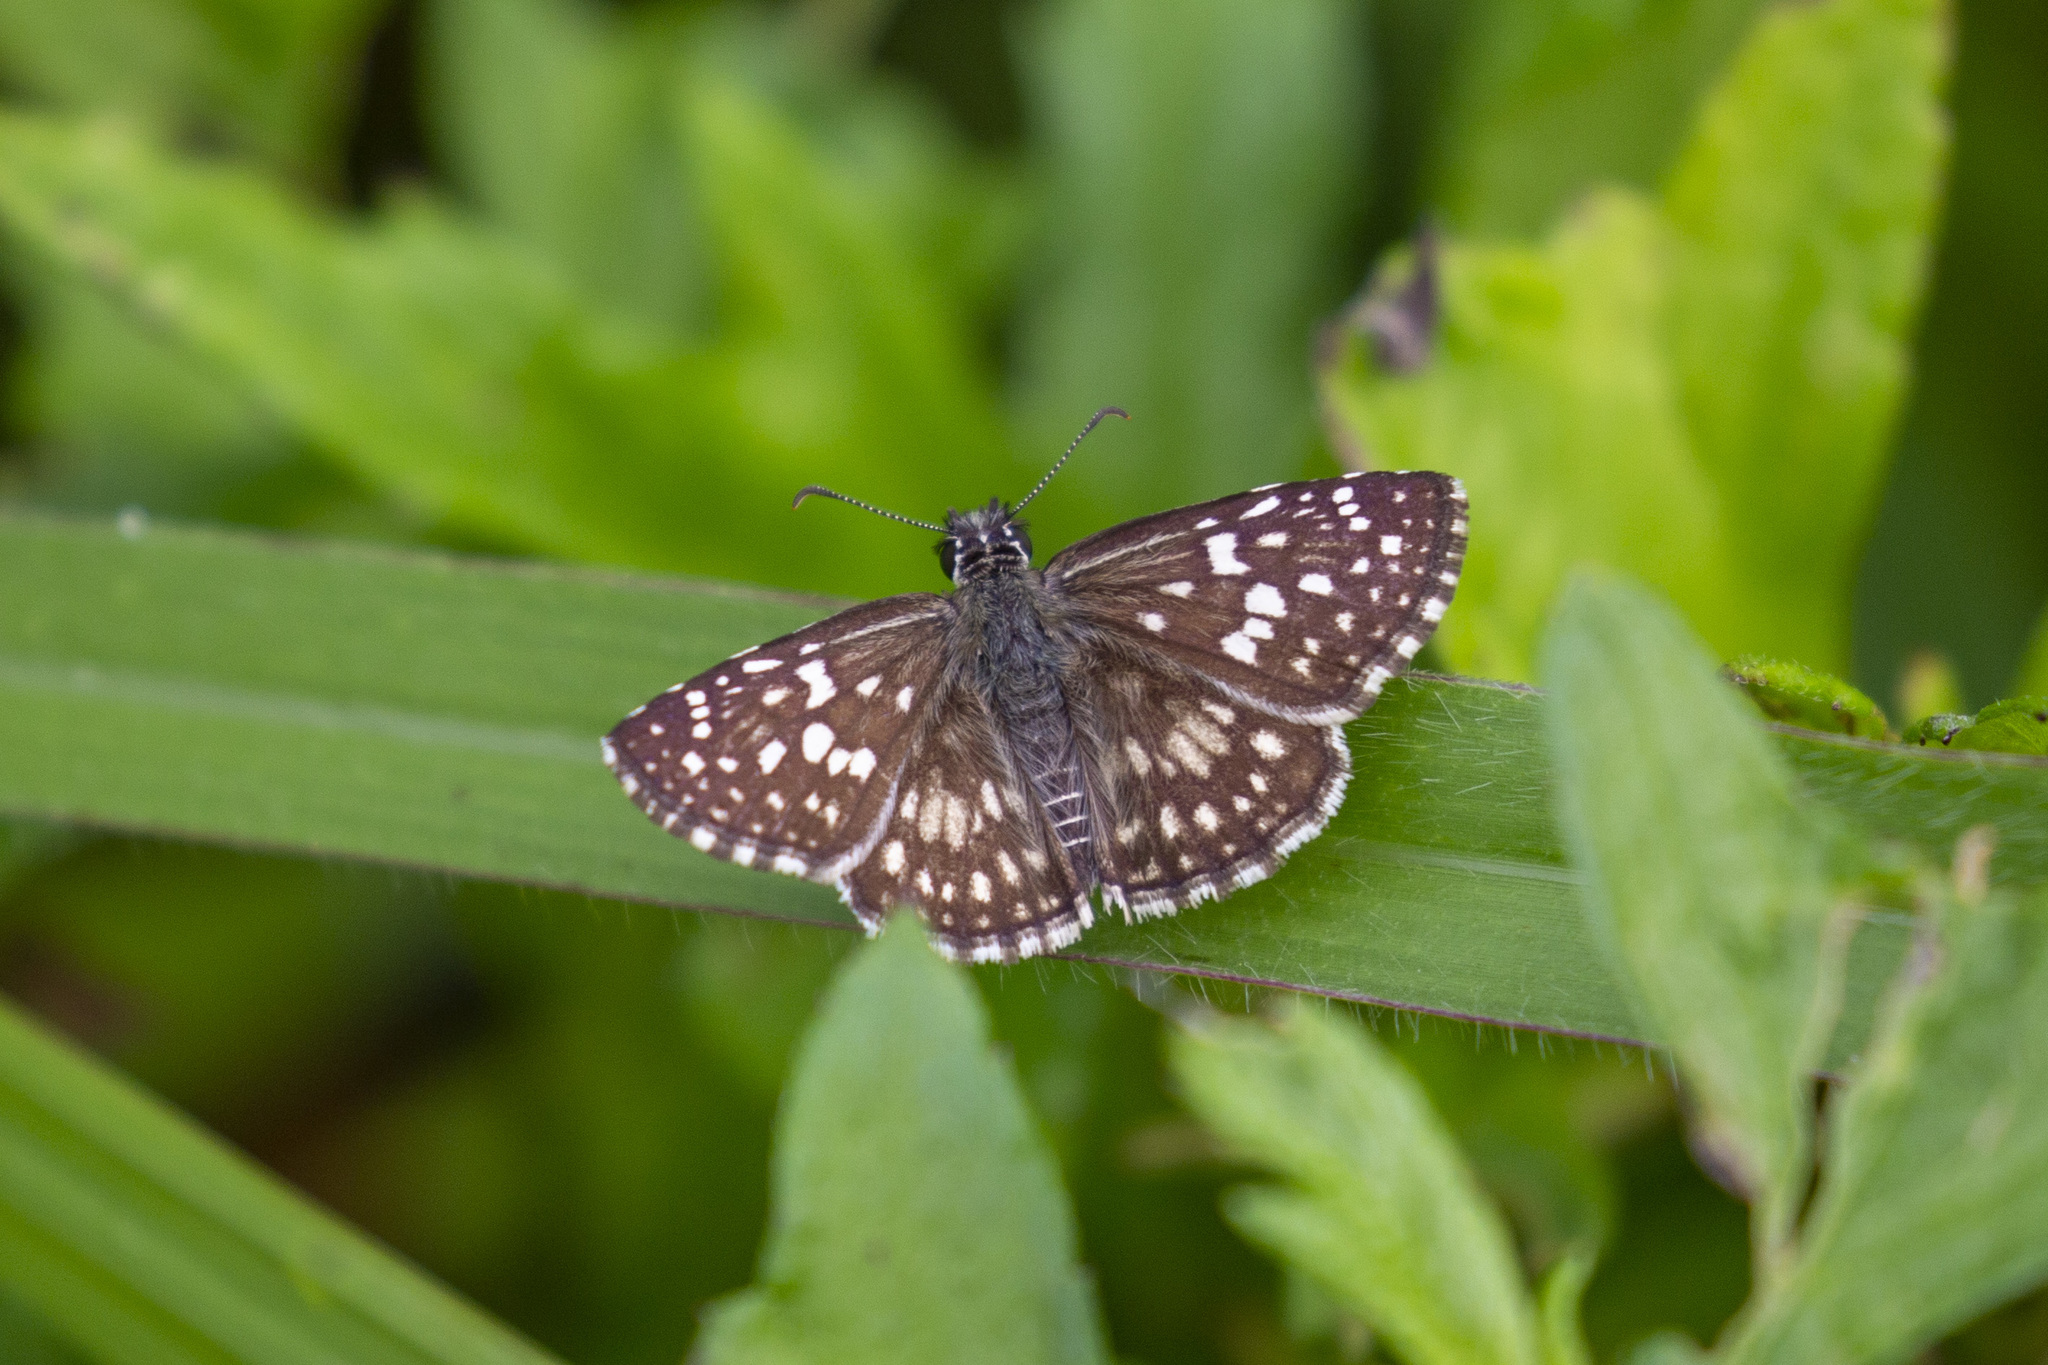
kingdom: Animalia
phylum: Arthropoda
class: Insecta
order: Lepidoptera
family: Hesperiidae
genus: Pyrgus
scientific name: Pyrgus oileus
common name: Tropical checkered-skipper
